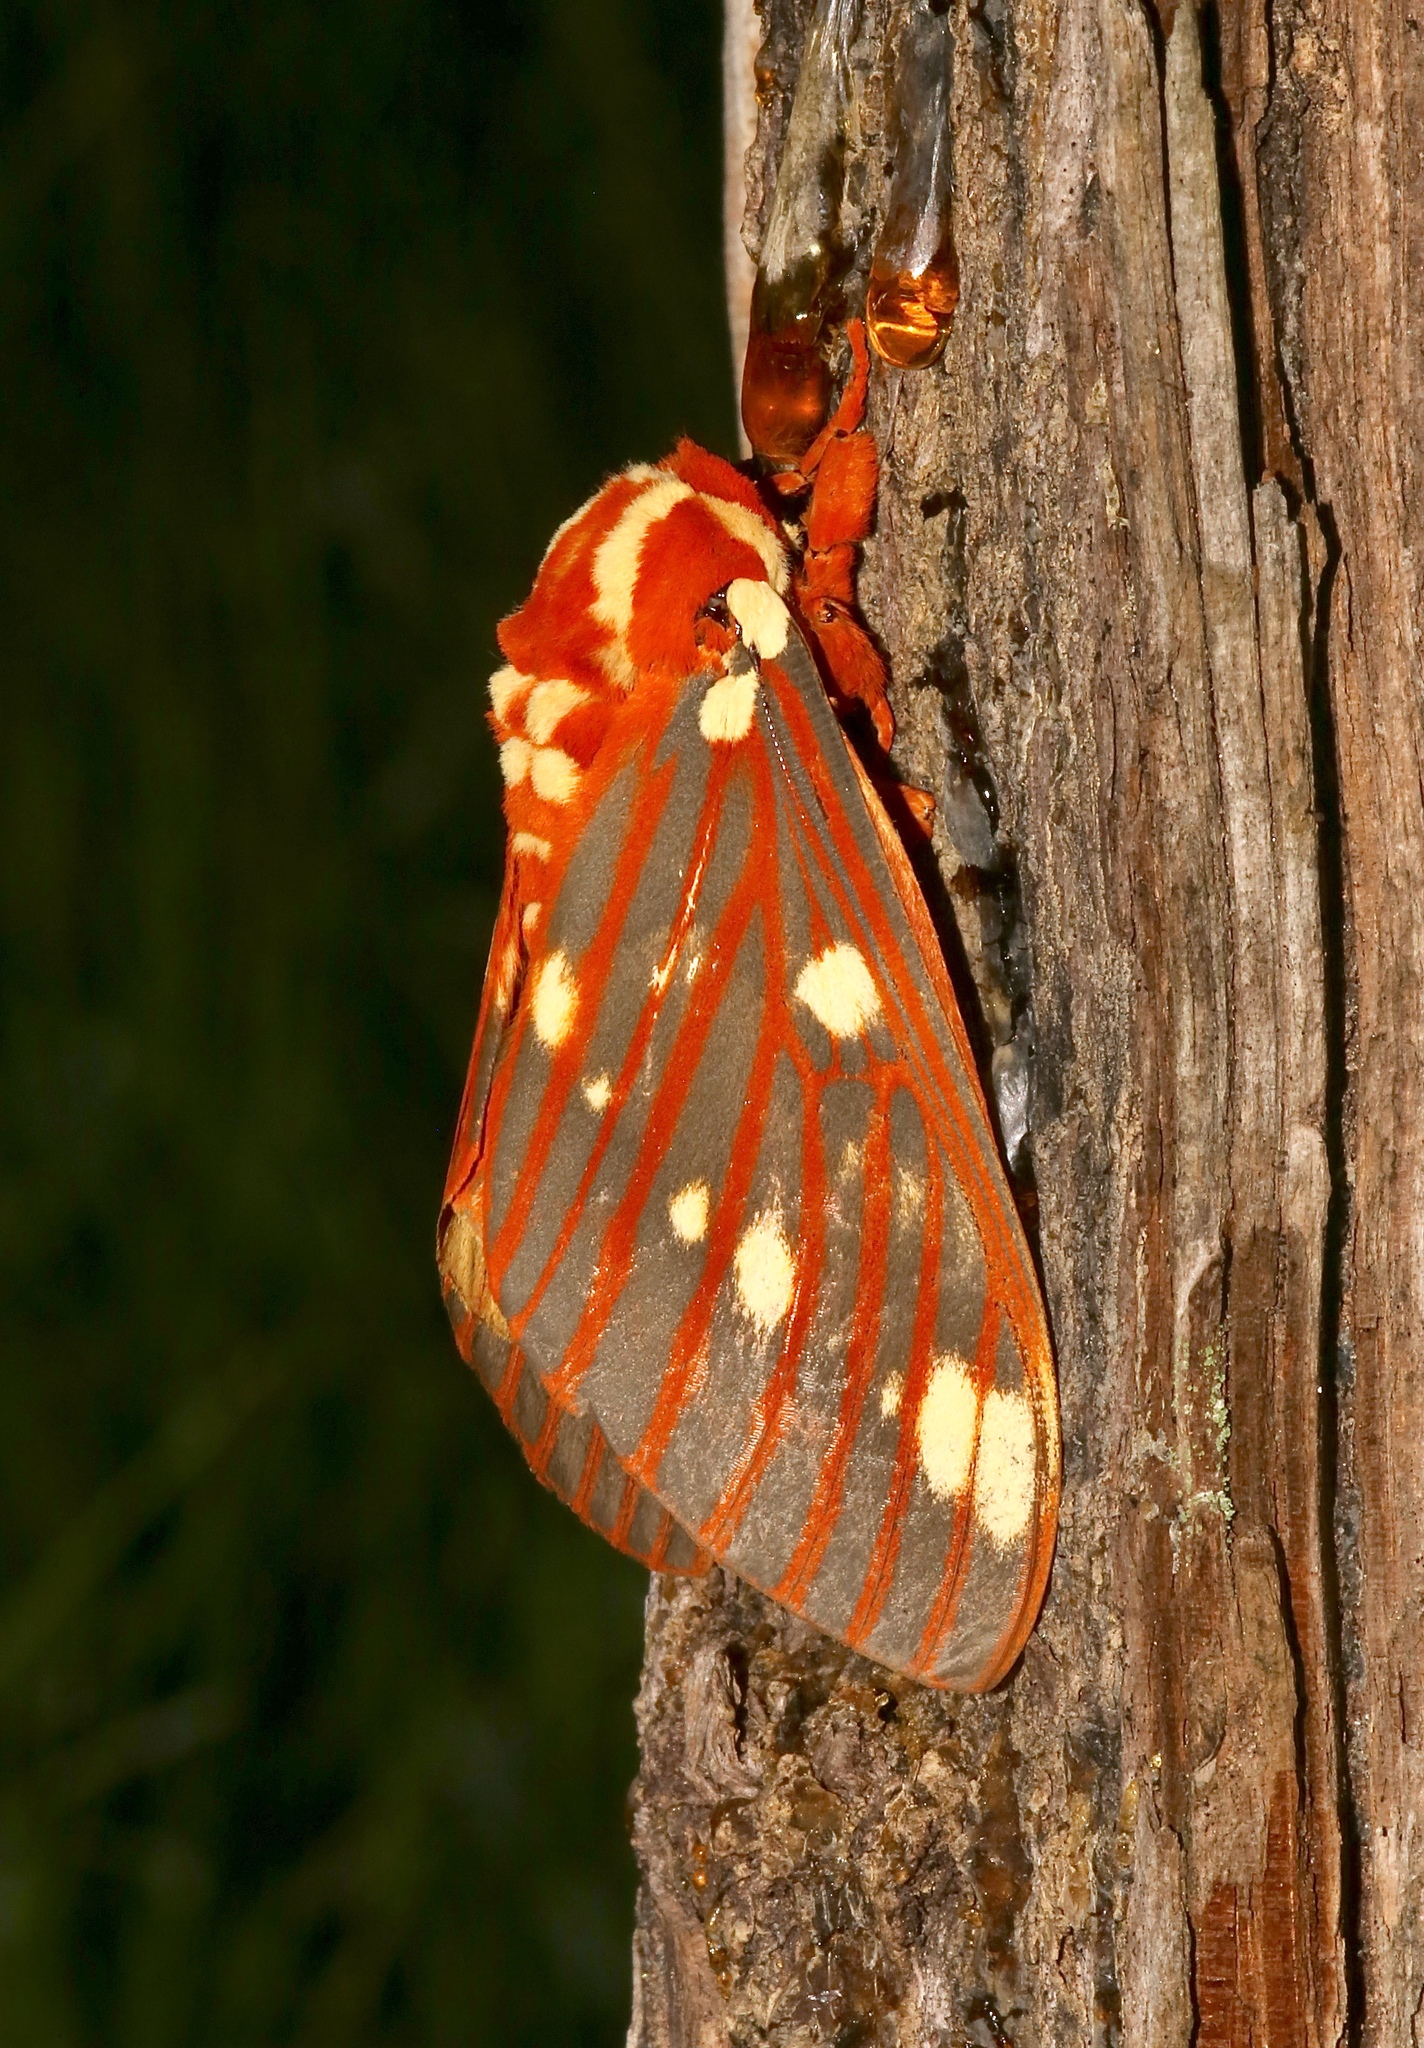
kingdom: Animalia
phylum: Arthropoda
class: Insecta
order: Lepidoptera
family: Saturniidae
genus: Citheronia
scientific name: Citheronia regalis
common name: Hickory horned devil
